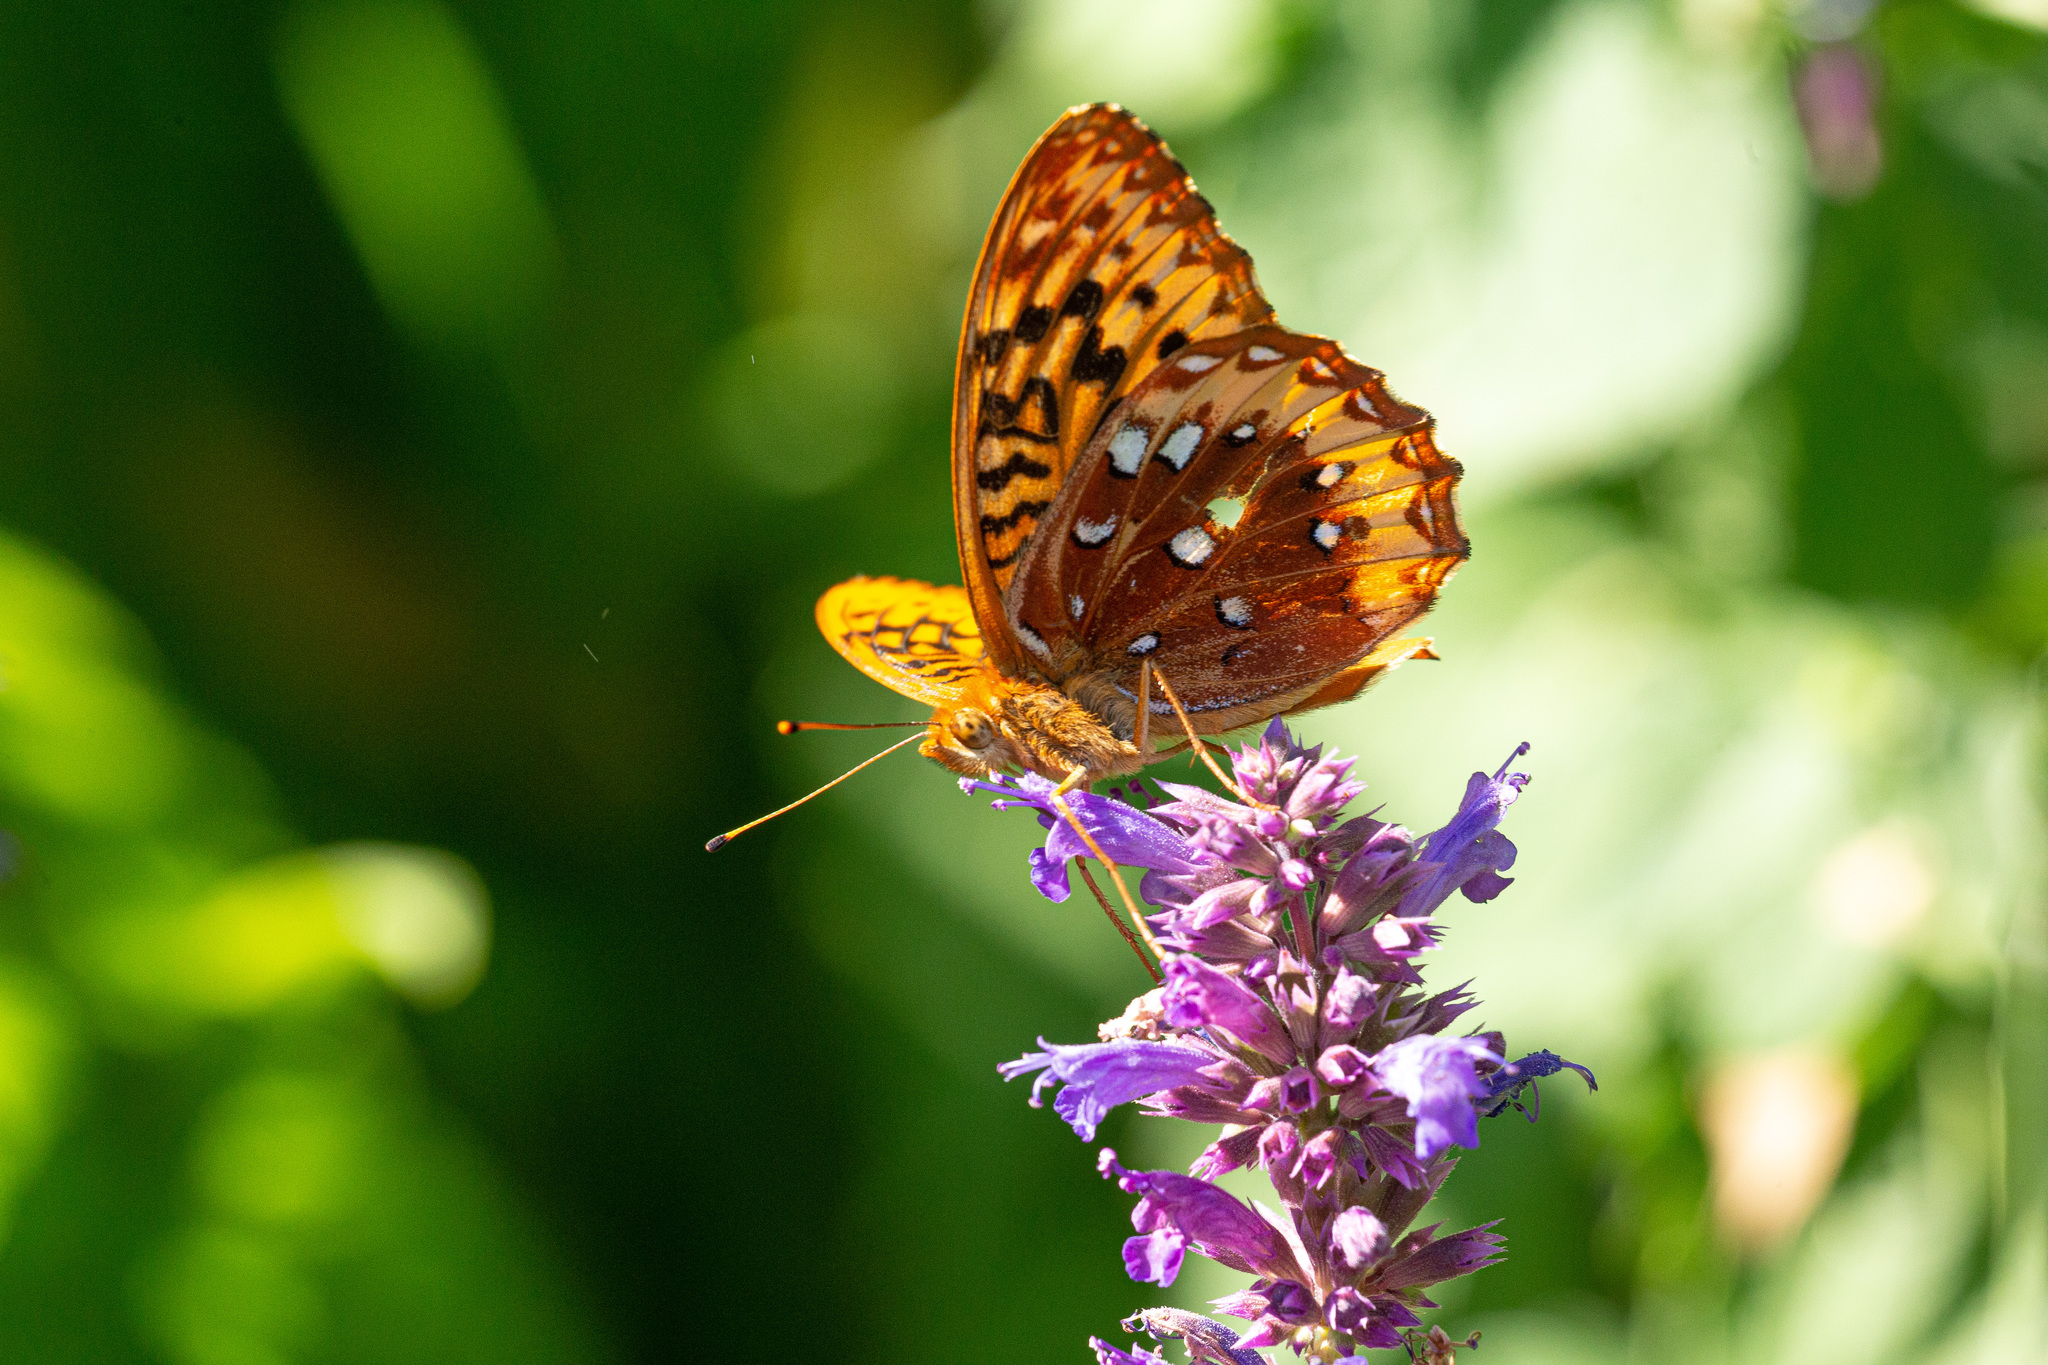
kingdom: Animalia
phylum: Arthropoda
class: Insecta
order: Lepidoptera
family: Nymphalidae
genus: Speyeria
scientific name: Speyeria cybele
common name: Great spangled fritillary
